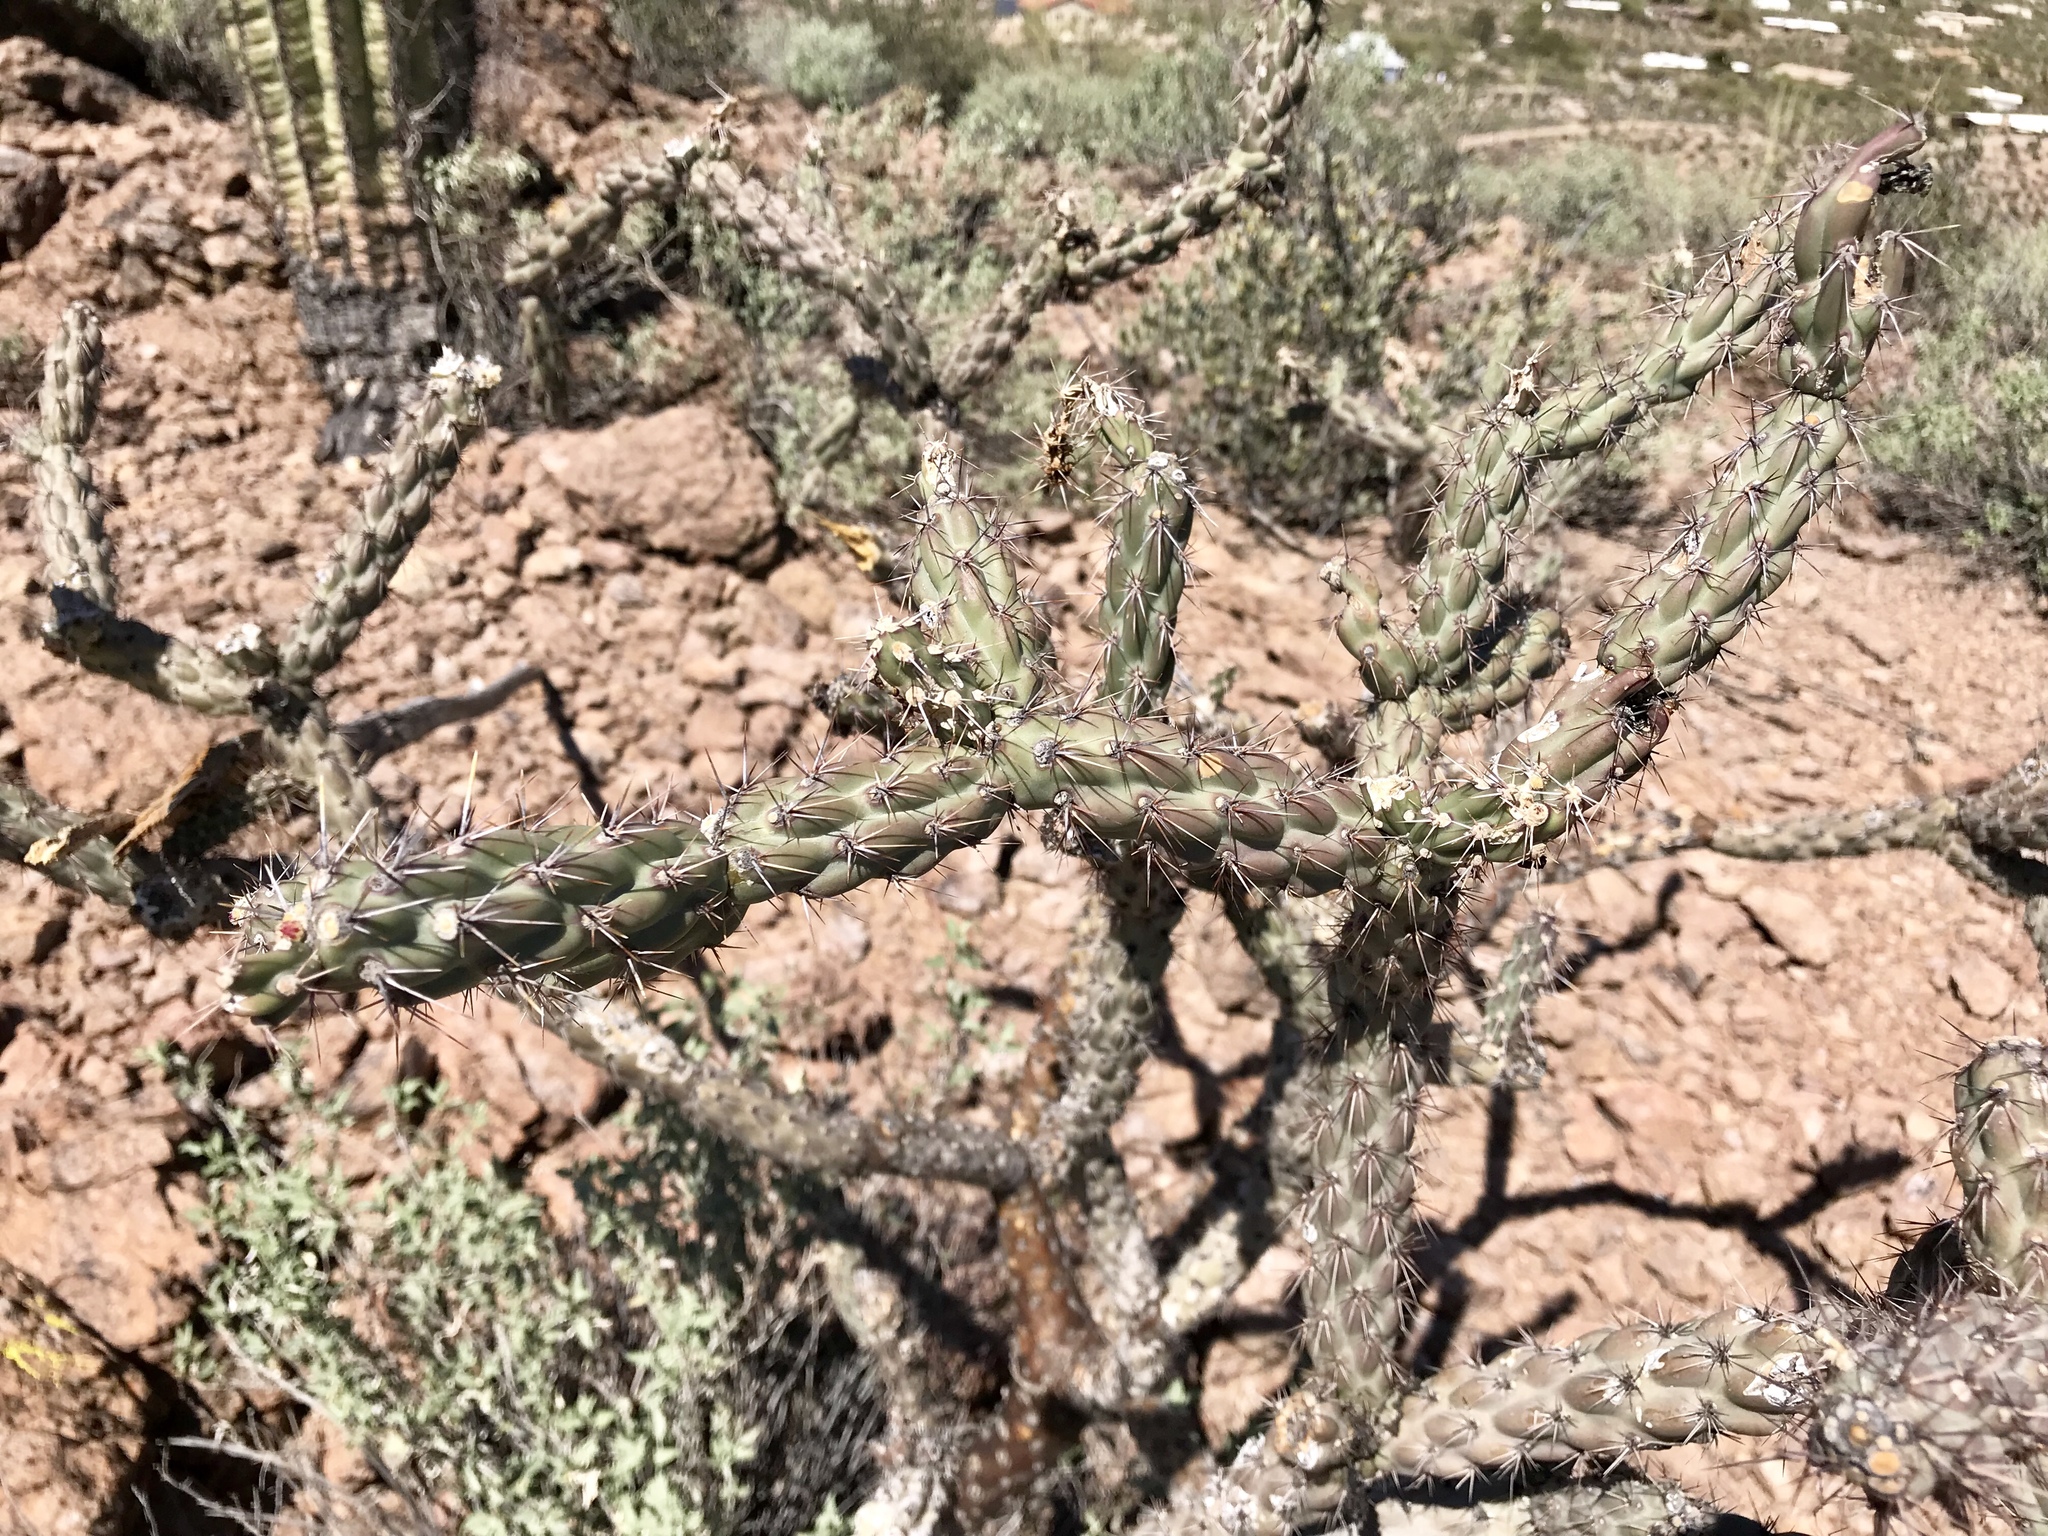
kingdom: Plantae
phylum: Tracheophyta
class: Magnoliopsida
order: Caryophyllales
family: Cactaceae
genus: Cylindropuntia
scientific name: Cylindropuntia thurberi
